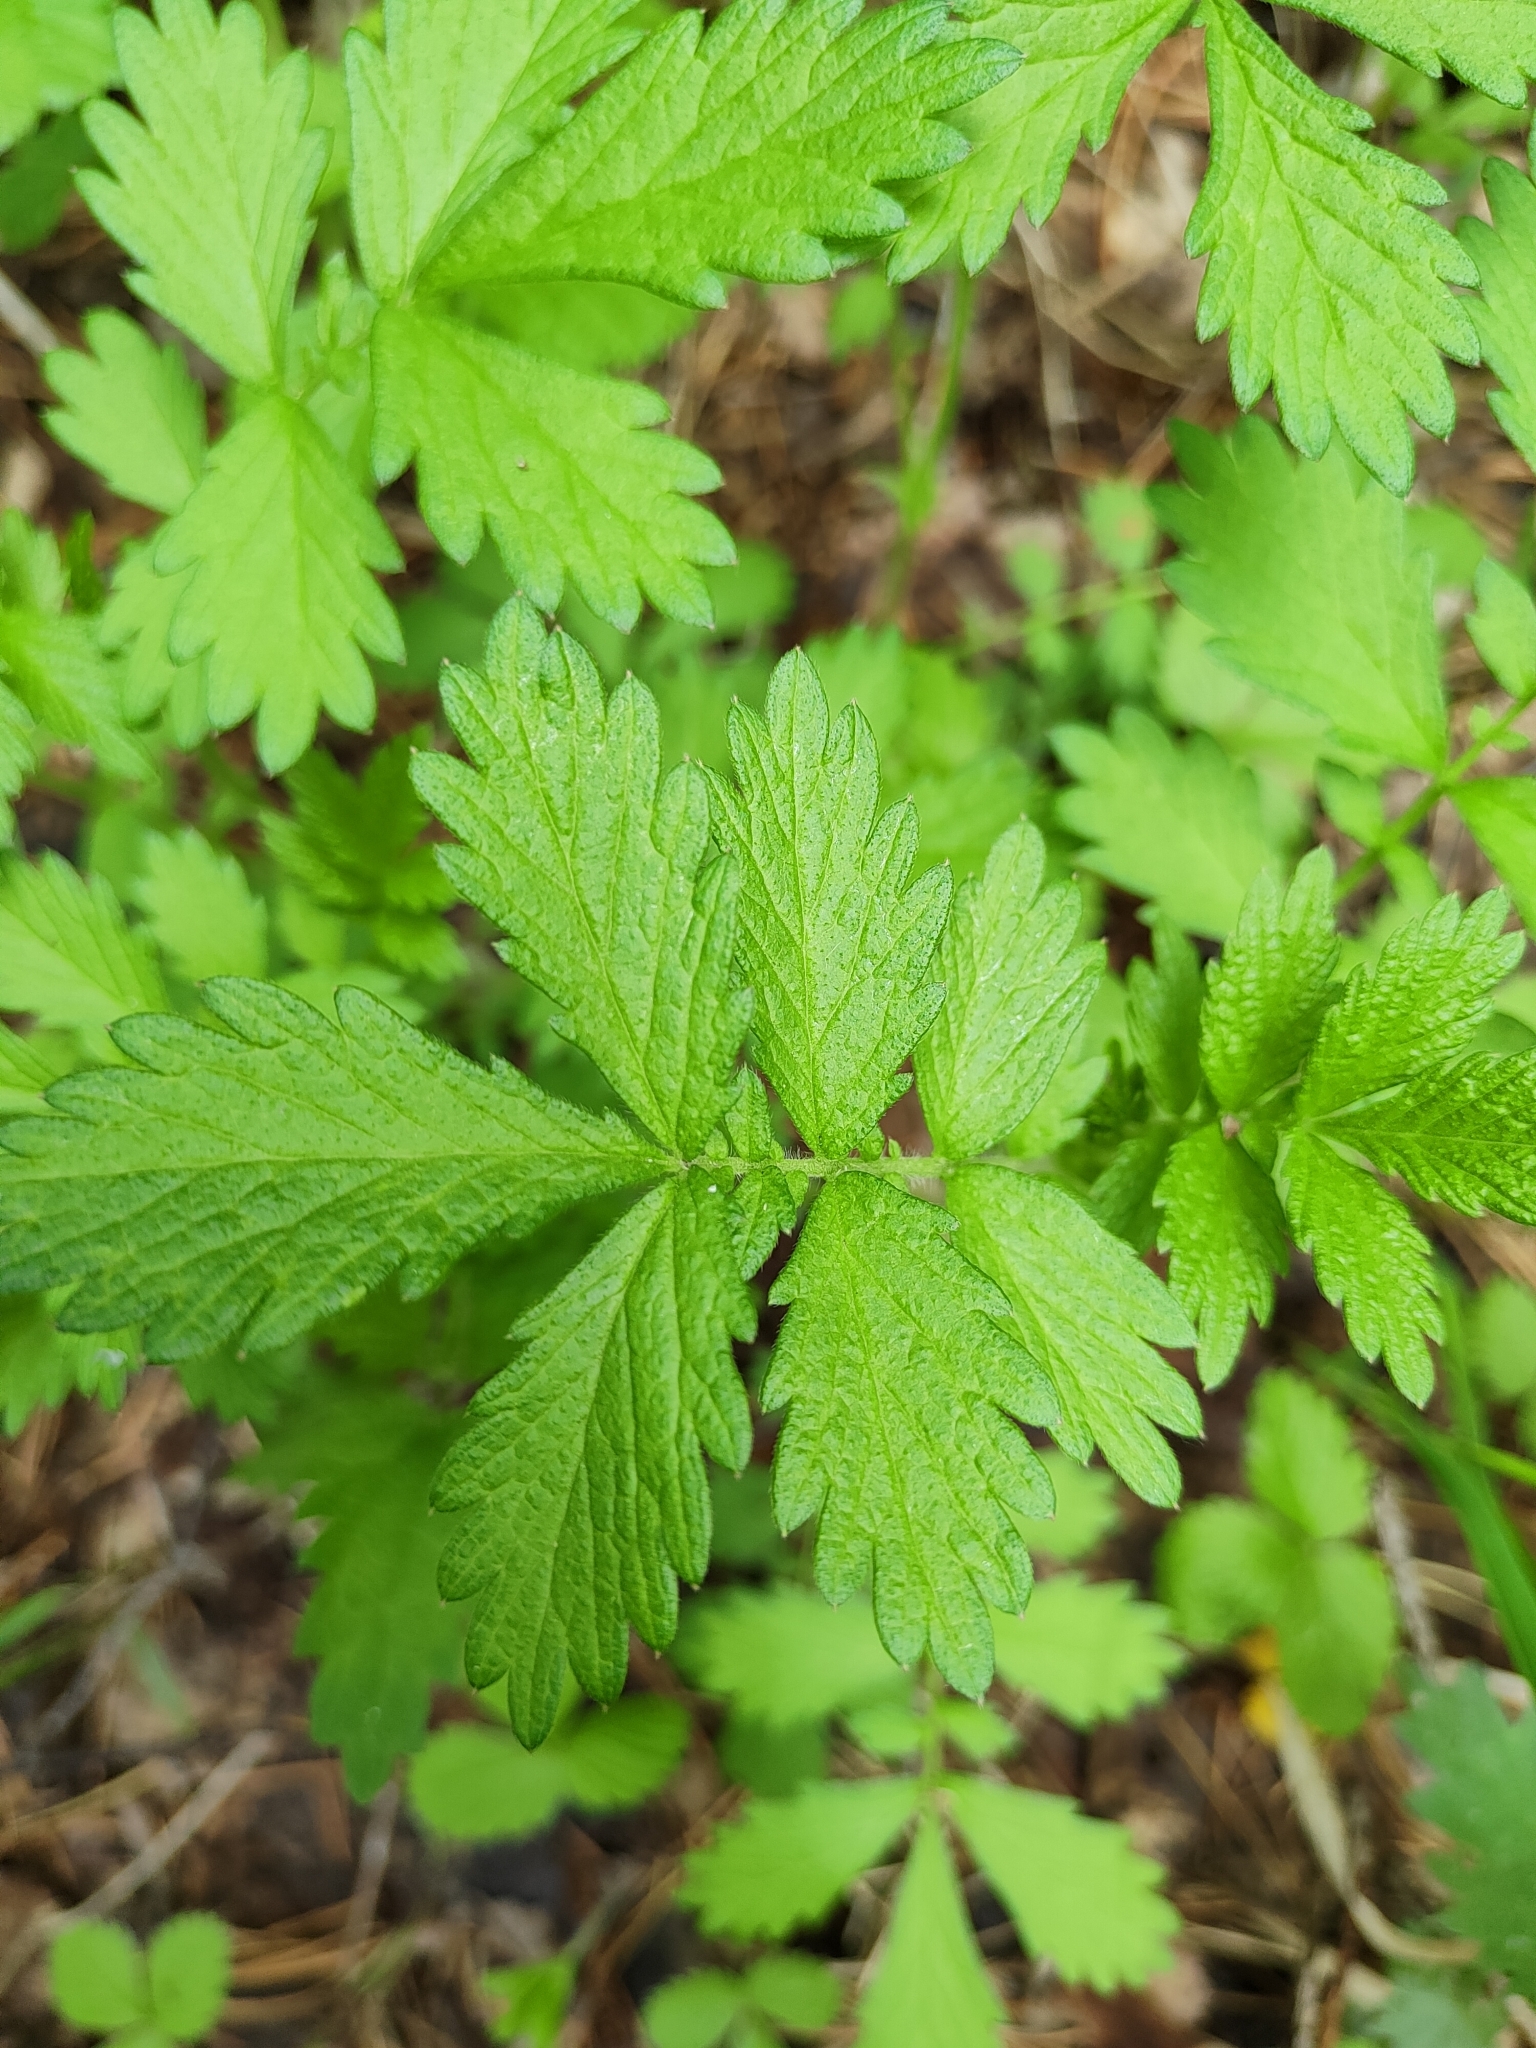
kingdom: Plantae
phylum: Tracheophyta
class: Magnoliopsida
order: Rosales
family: Rosaceae
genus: Agrimonia
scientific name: Agrimonia pilosa
